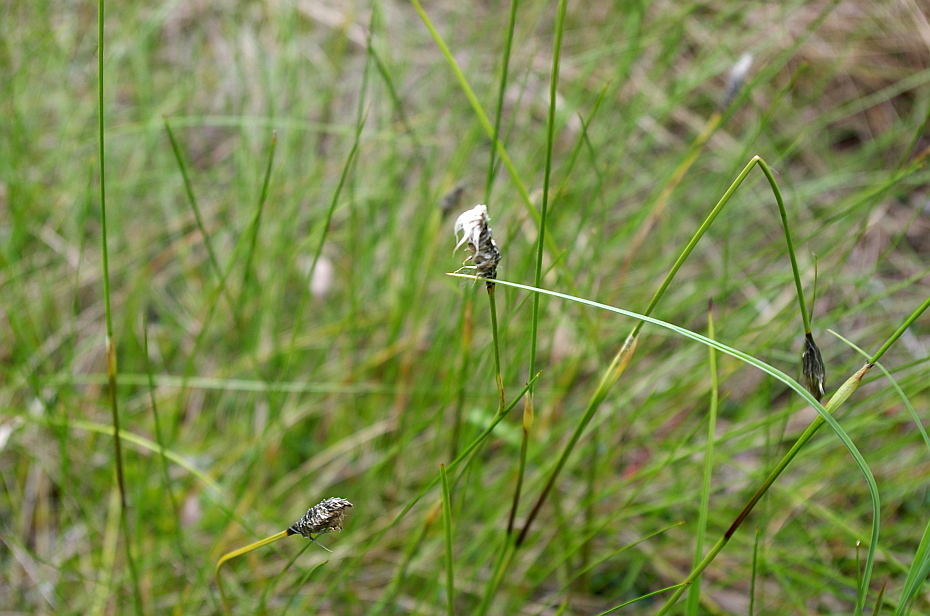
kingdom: Plantae
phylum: Tracheophyta
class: Liliopsida
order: Poales
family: Cyperaceae
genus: Eriophorum
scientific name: Eriophorum vaginatum
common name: Hare's-tail cottongrass
